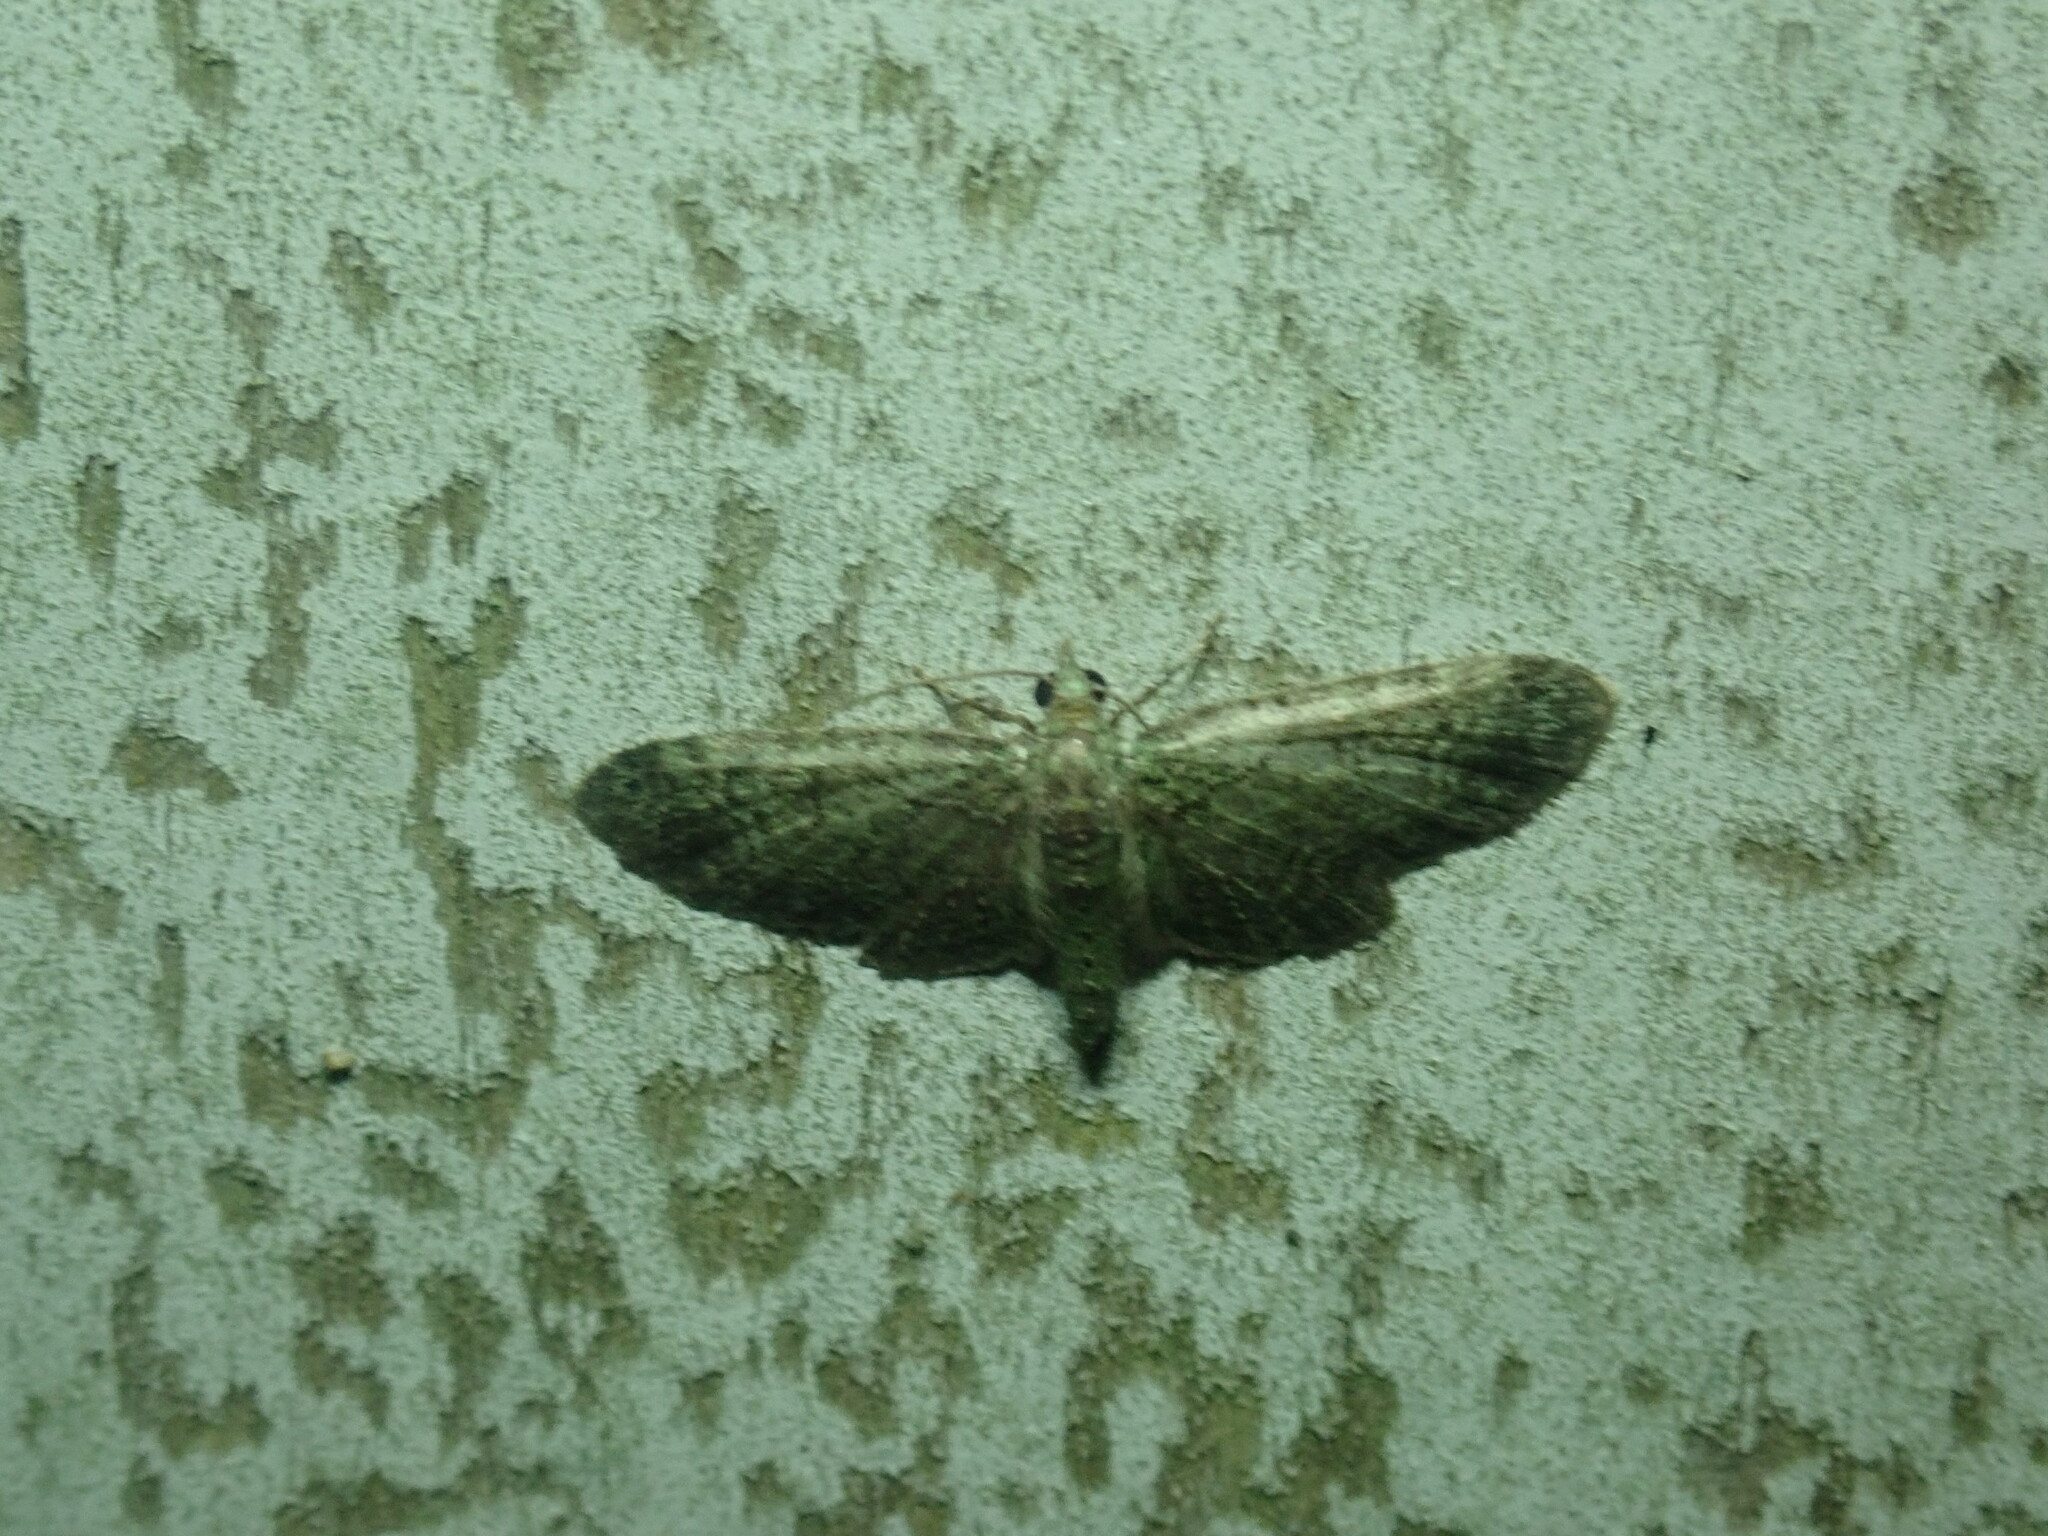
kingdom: Animalia
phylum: Arthropoda
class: Insecta
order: Lepidoptera
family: Geometridae
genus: Pasiphila
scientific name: Pasiphila rectangulata
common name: Green pug
